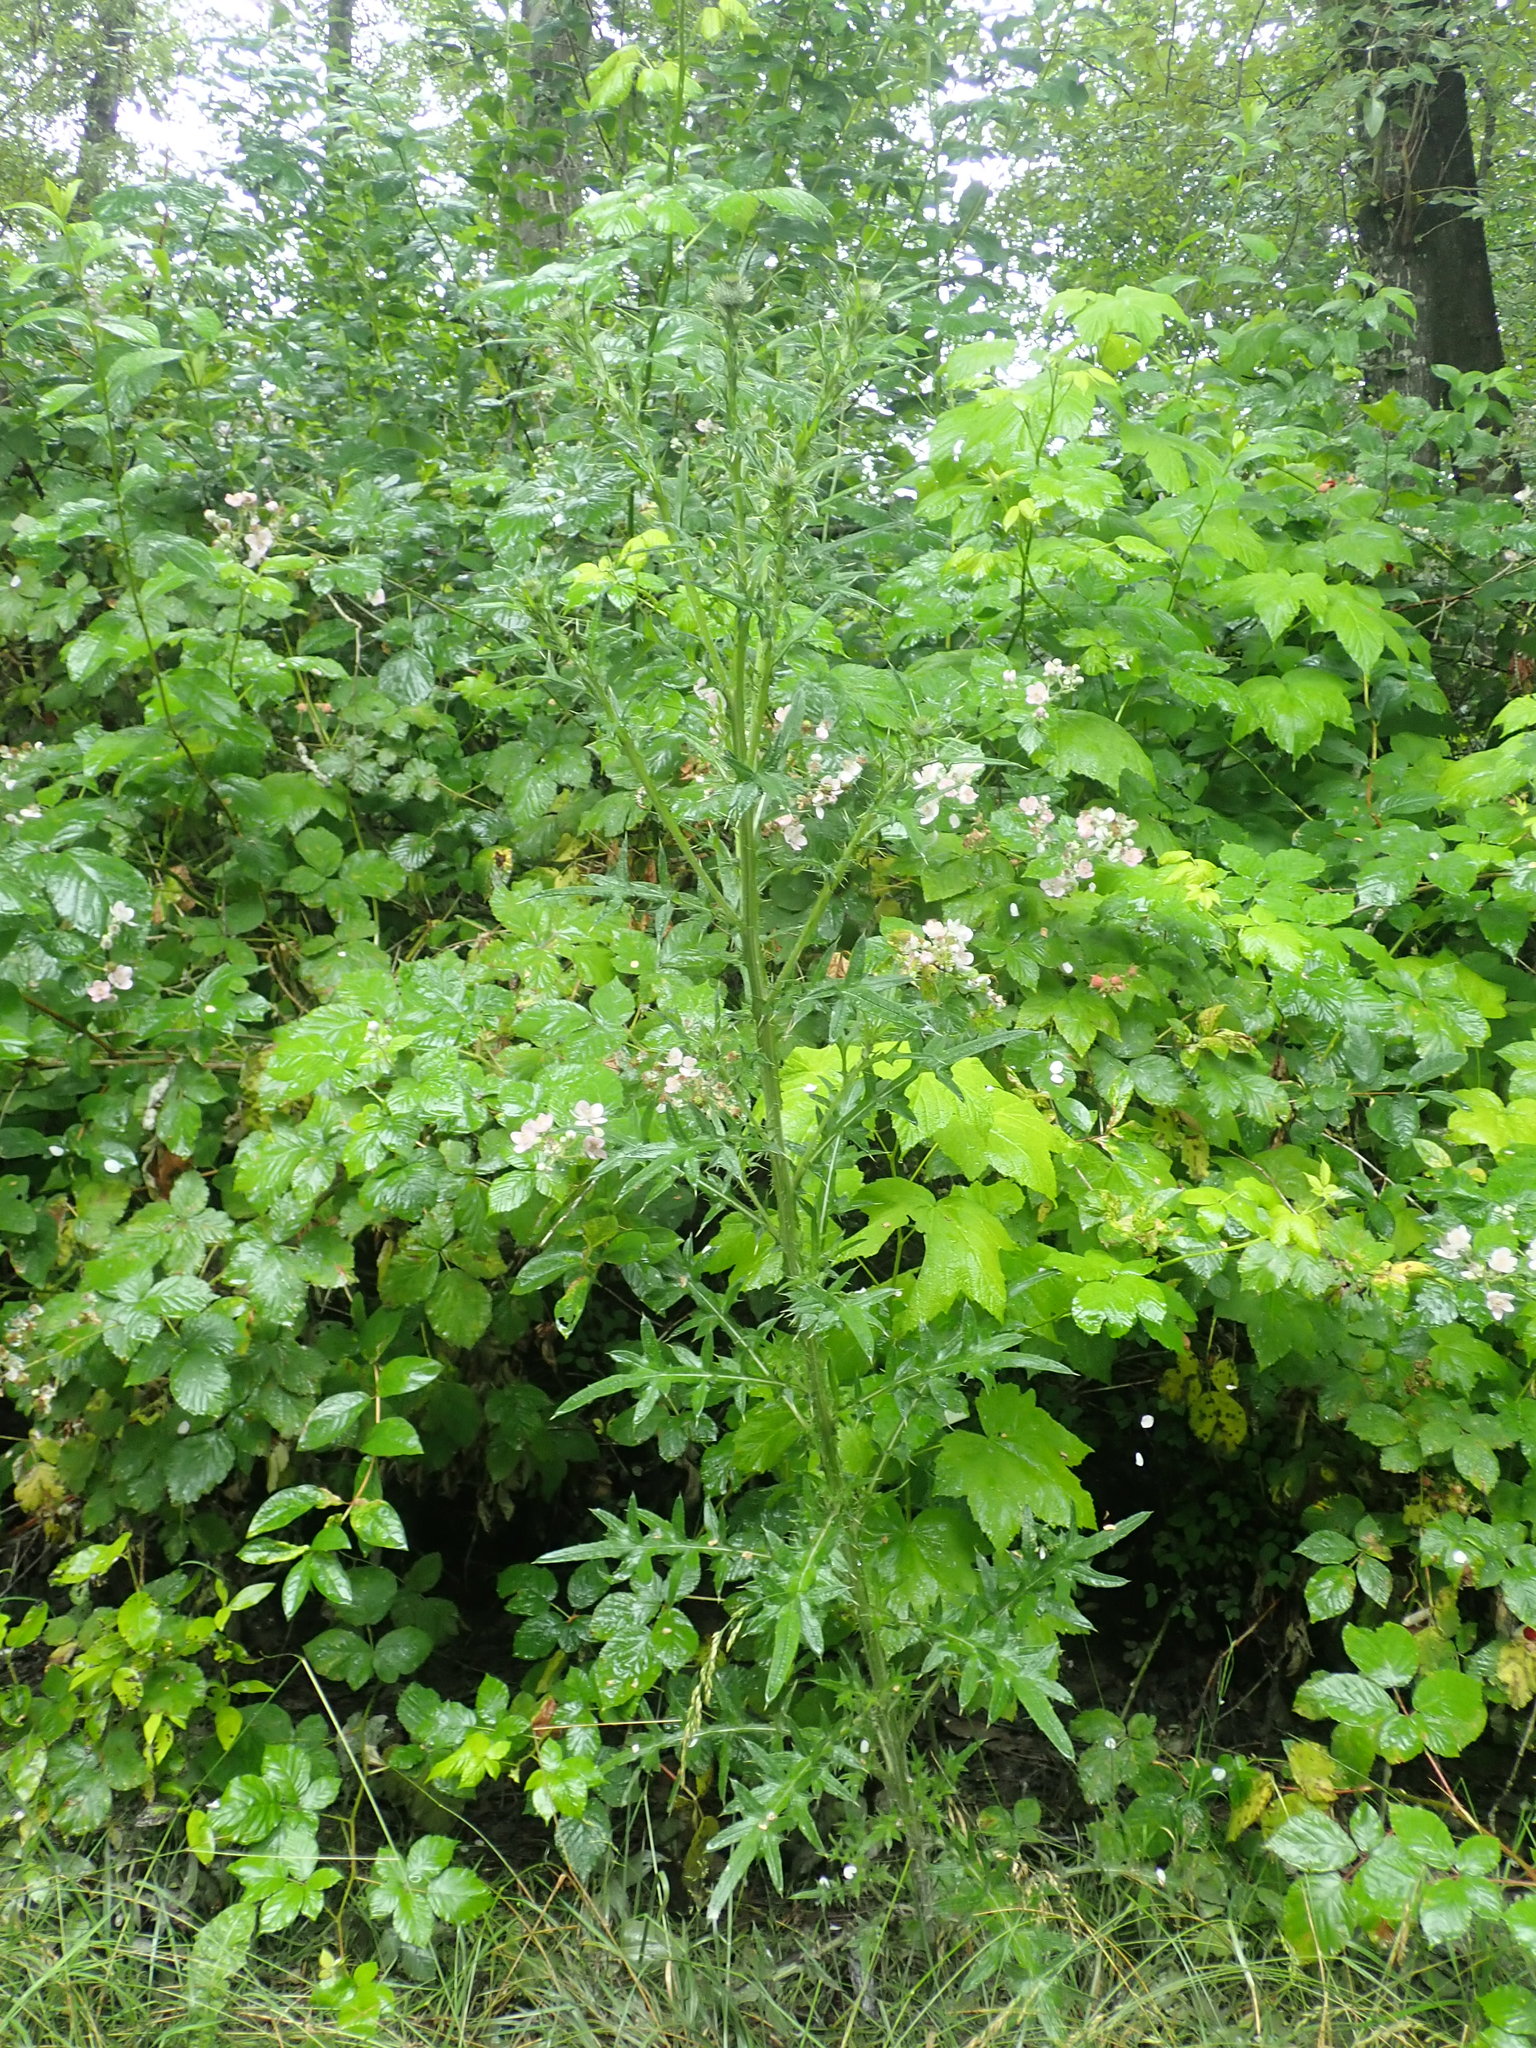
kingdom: Plantae
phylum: Tracheophyta
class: Magnoliopsida
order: Asterales
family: Asteraceae
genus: Cirsium
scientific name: Cirsium vulgare
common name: Bull thistle
